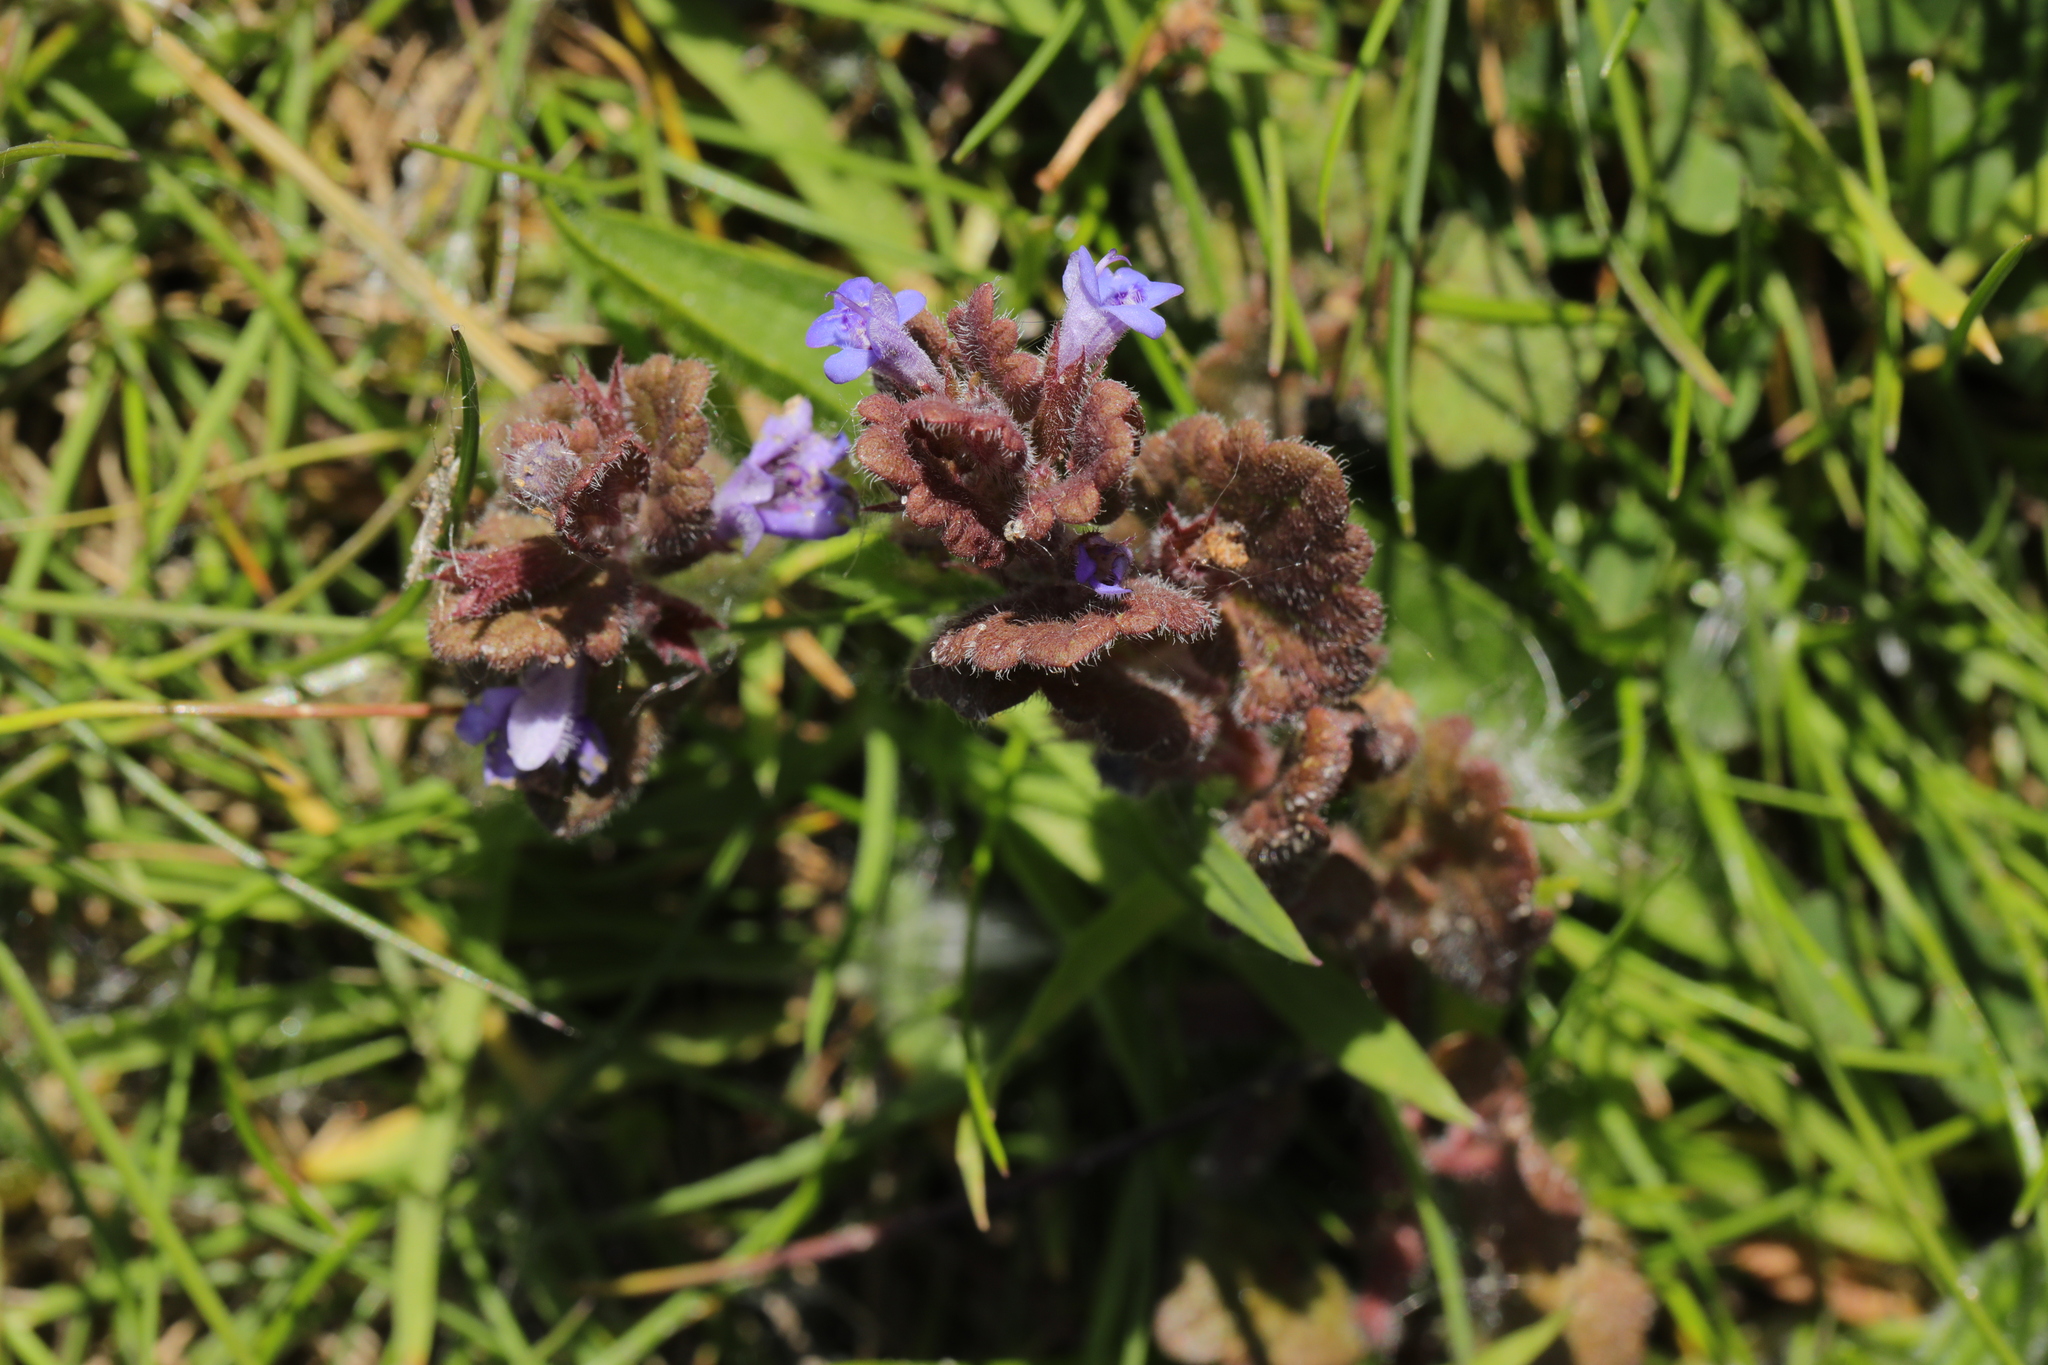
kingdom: Plantae
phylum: Tracheophyta
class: Magnoliopsida
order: Lamiales
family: Lamiaceae
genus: Glechoma
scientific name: Glechoma hederacea
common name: Ground ivy
